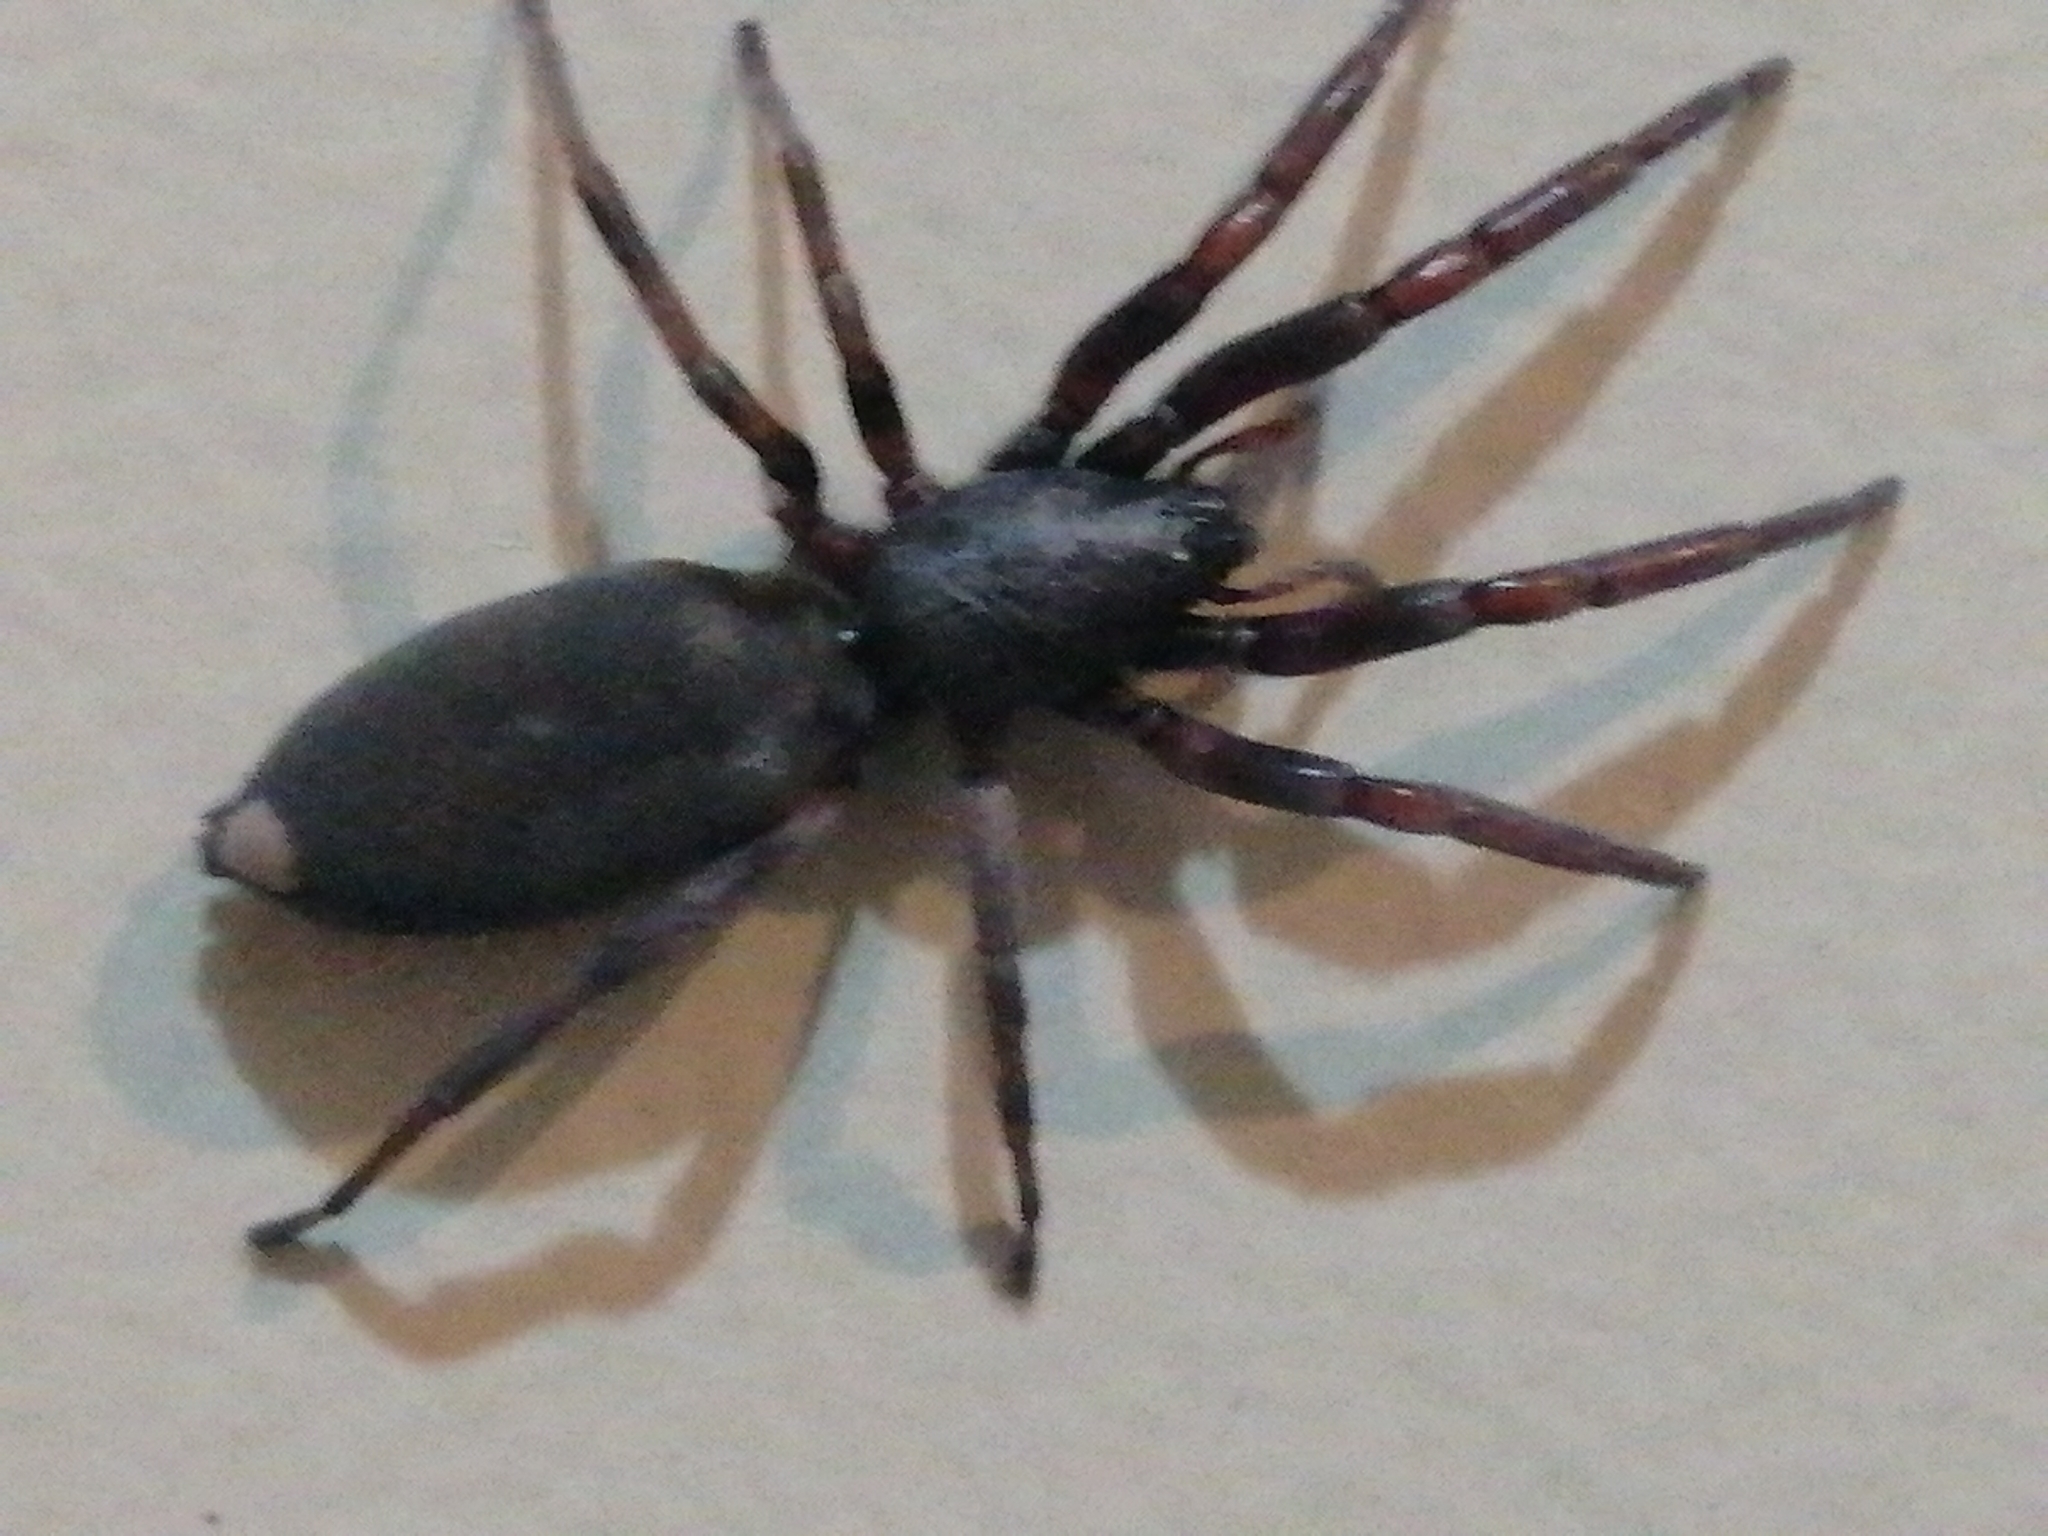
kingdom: Animalia
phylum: Arthropoda
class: Arachnida
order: Araneae
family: Lamponidae
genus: Lampona
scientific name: Lampona cylindrata
